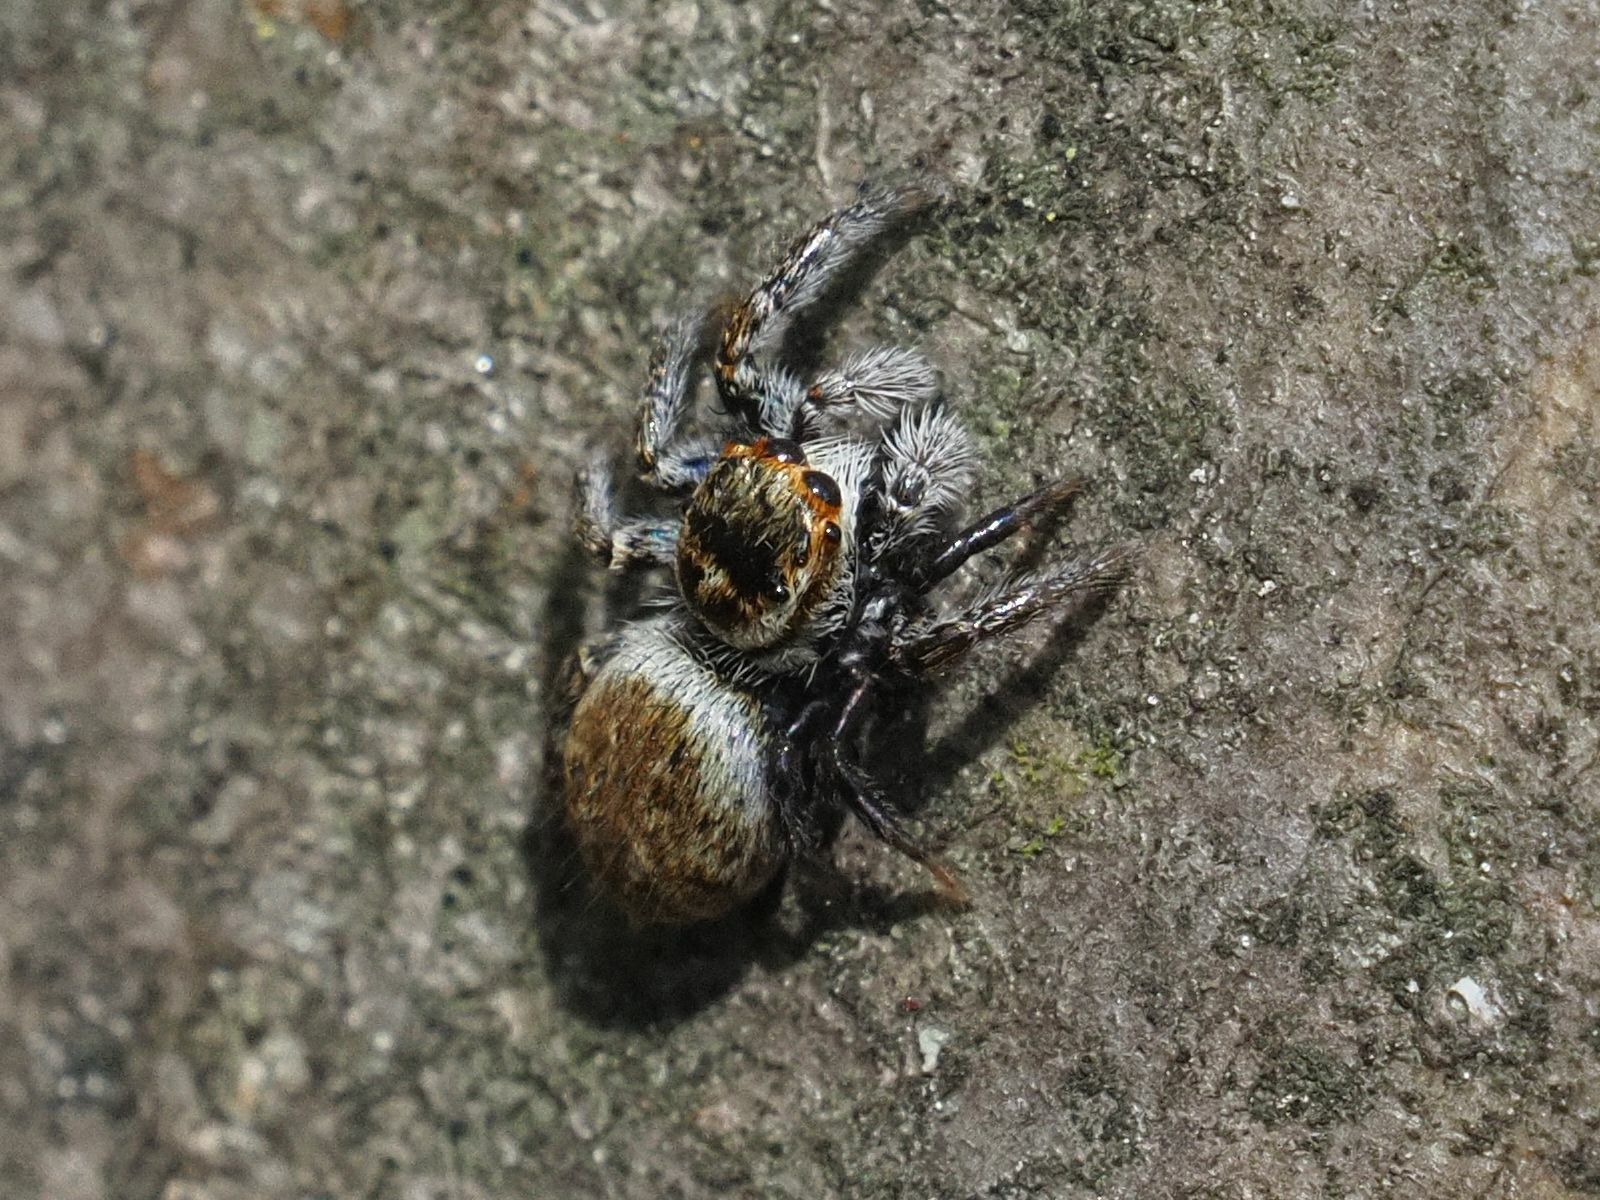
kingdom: Animalia
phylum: Arthropoda
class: Arachnida
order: Araneae
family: Salticidae
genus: Carrhotus
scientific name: Carrhotus xanthogramma
